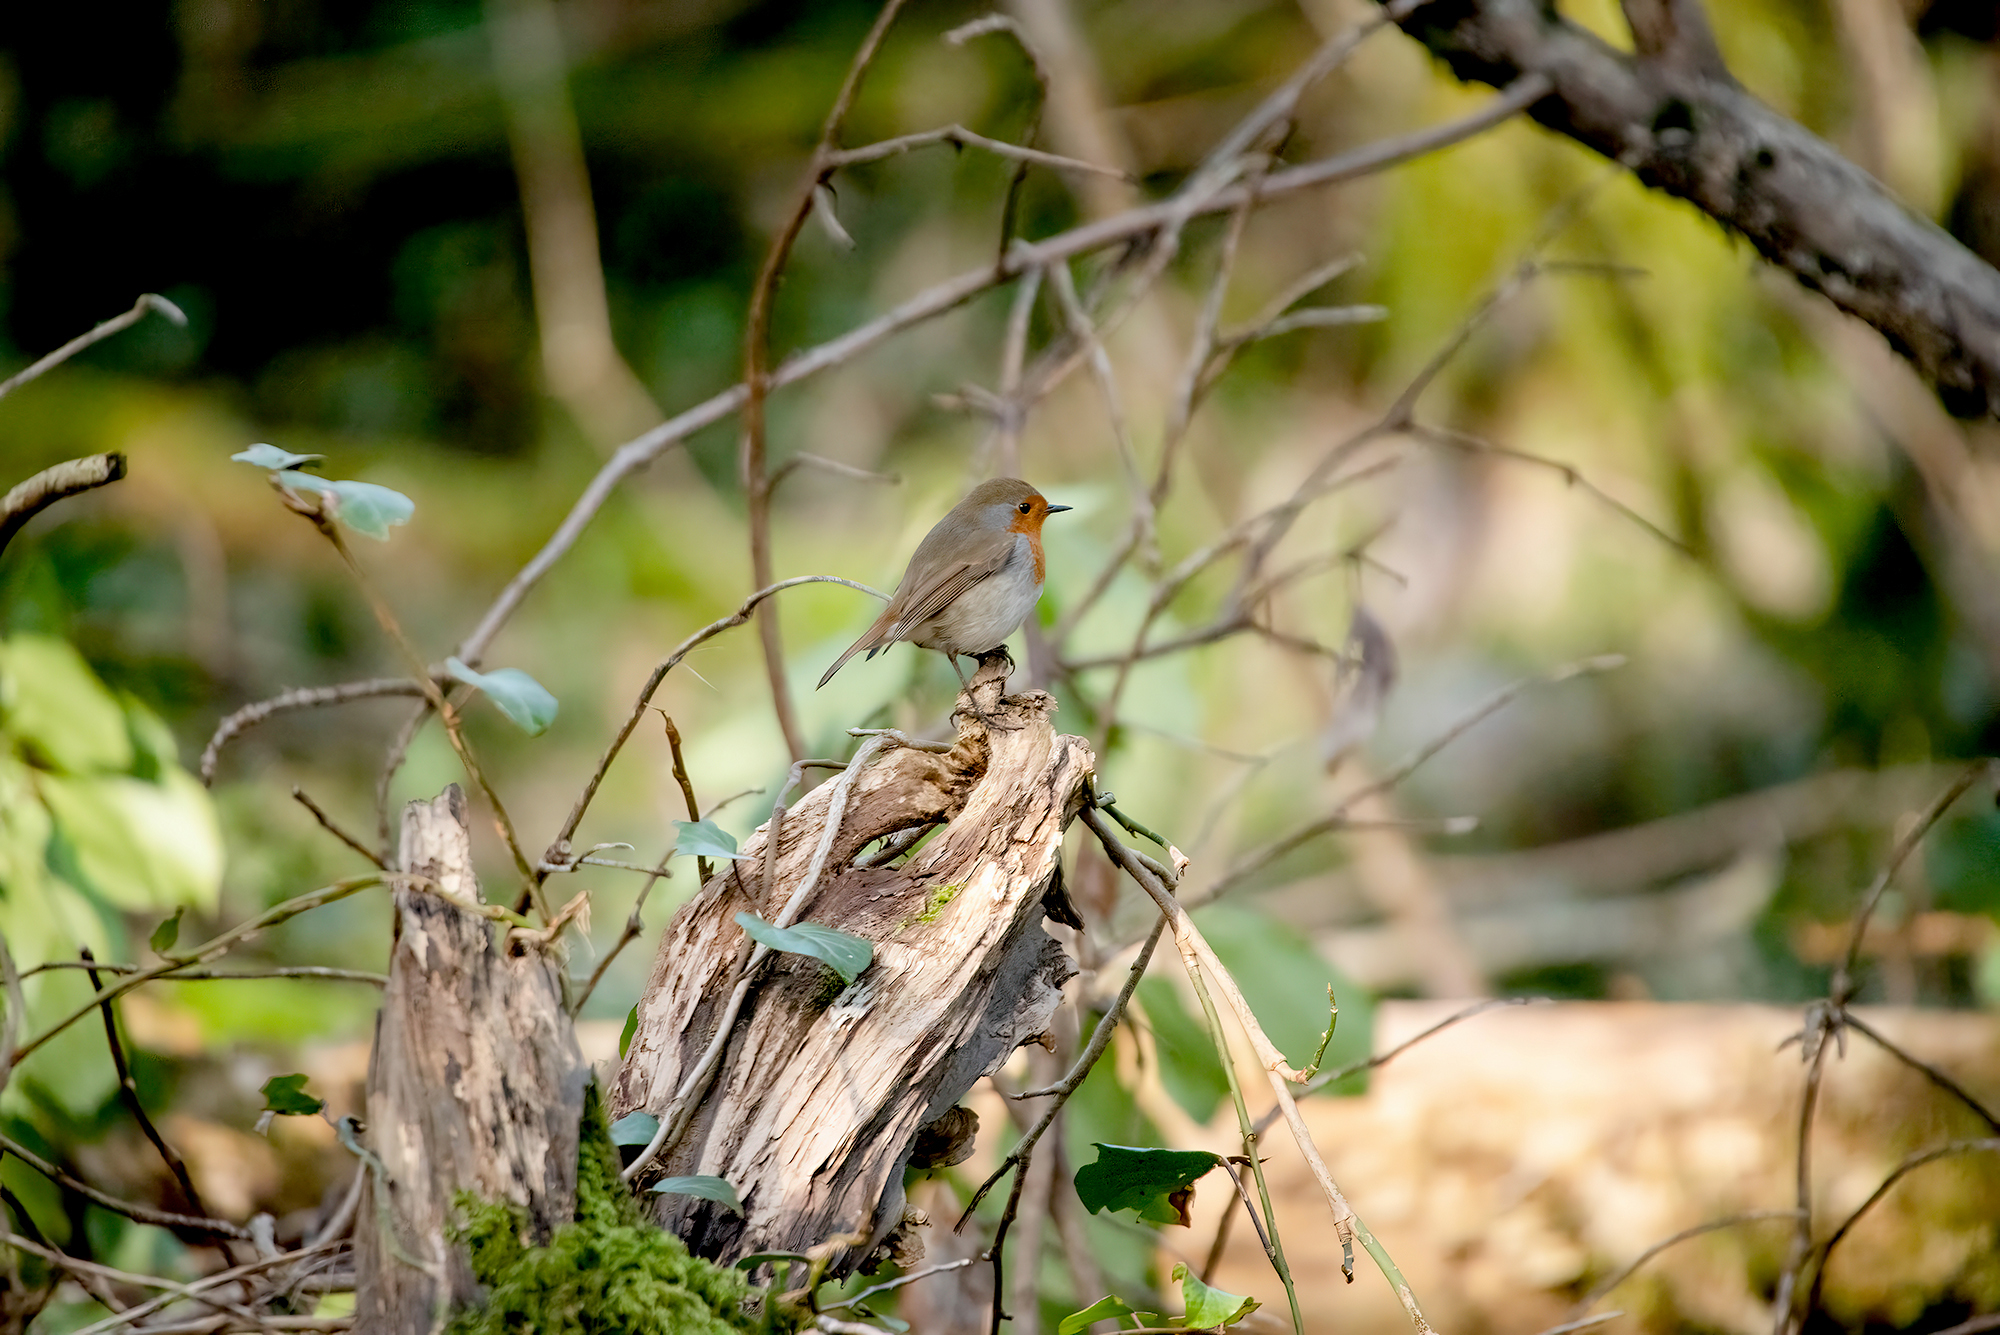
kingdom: Animalia
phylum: Chordata
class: Aves
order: Passeriformes
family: Muscicapidae
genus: Erithacus
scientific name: Erithacus rubecula
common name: European robin
